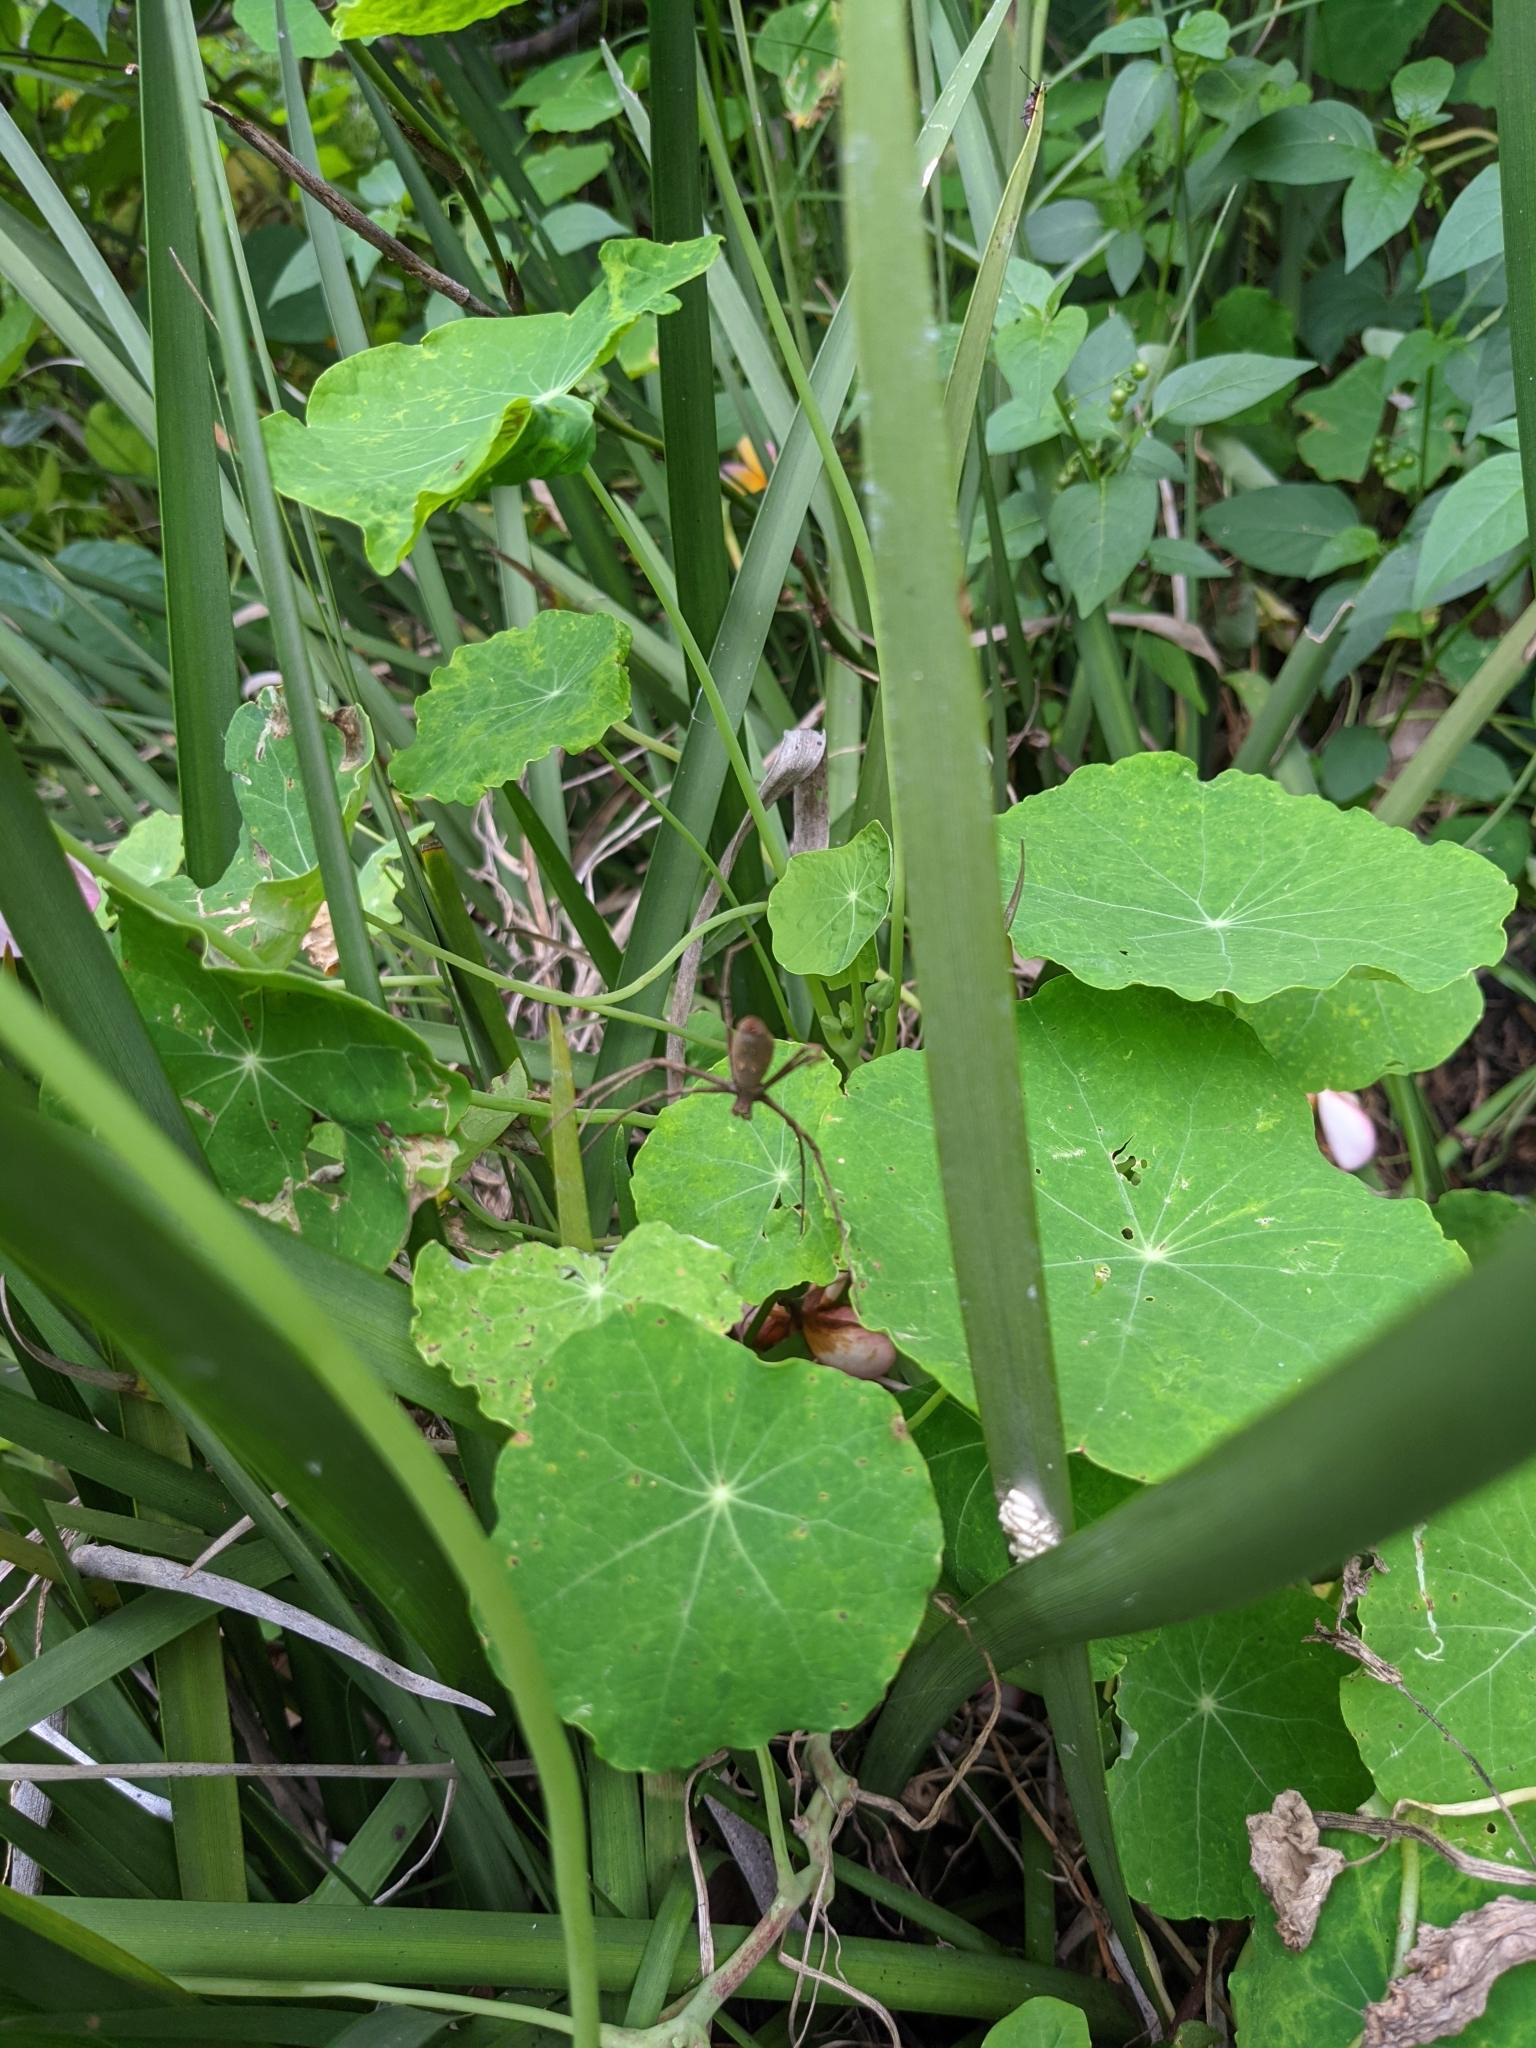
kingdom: Animalia
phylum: Arthropoda
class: Arachnida
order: Araneae
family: Deinopidae
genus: Deinopis
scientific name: Deinopis subrufa
